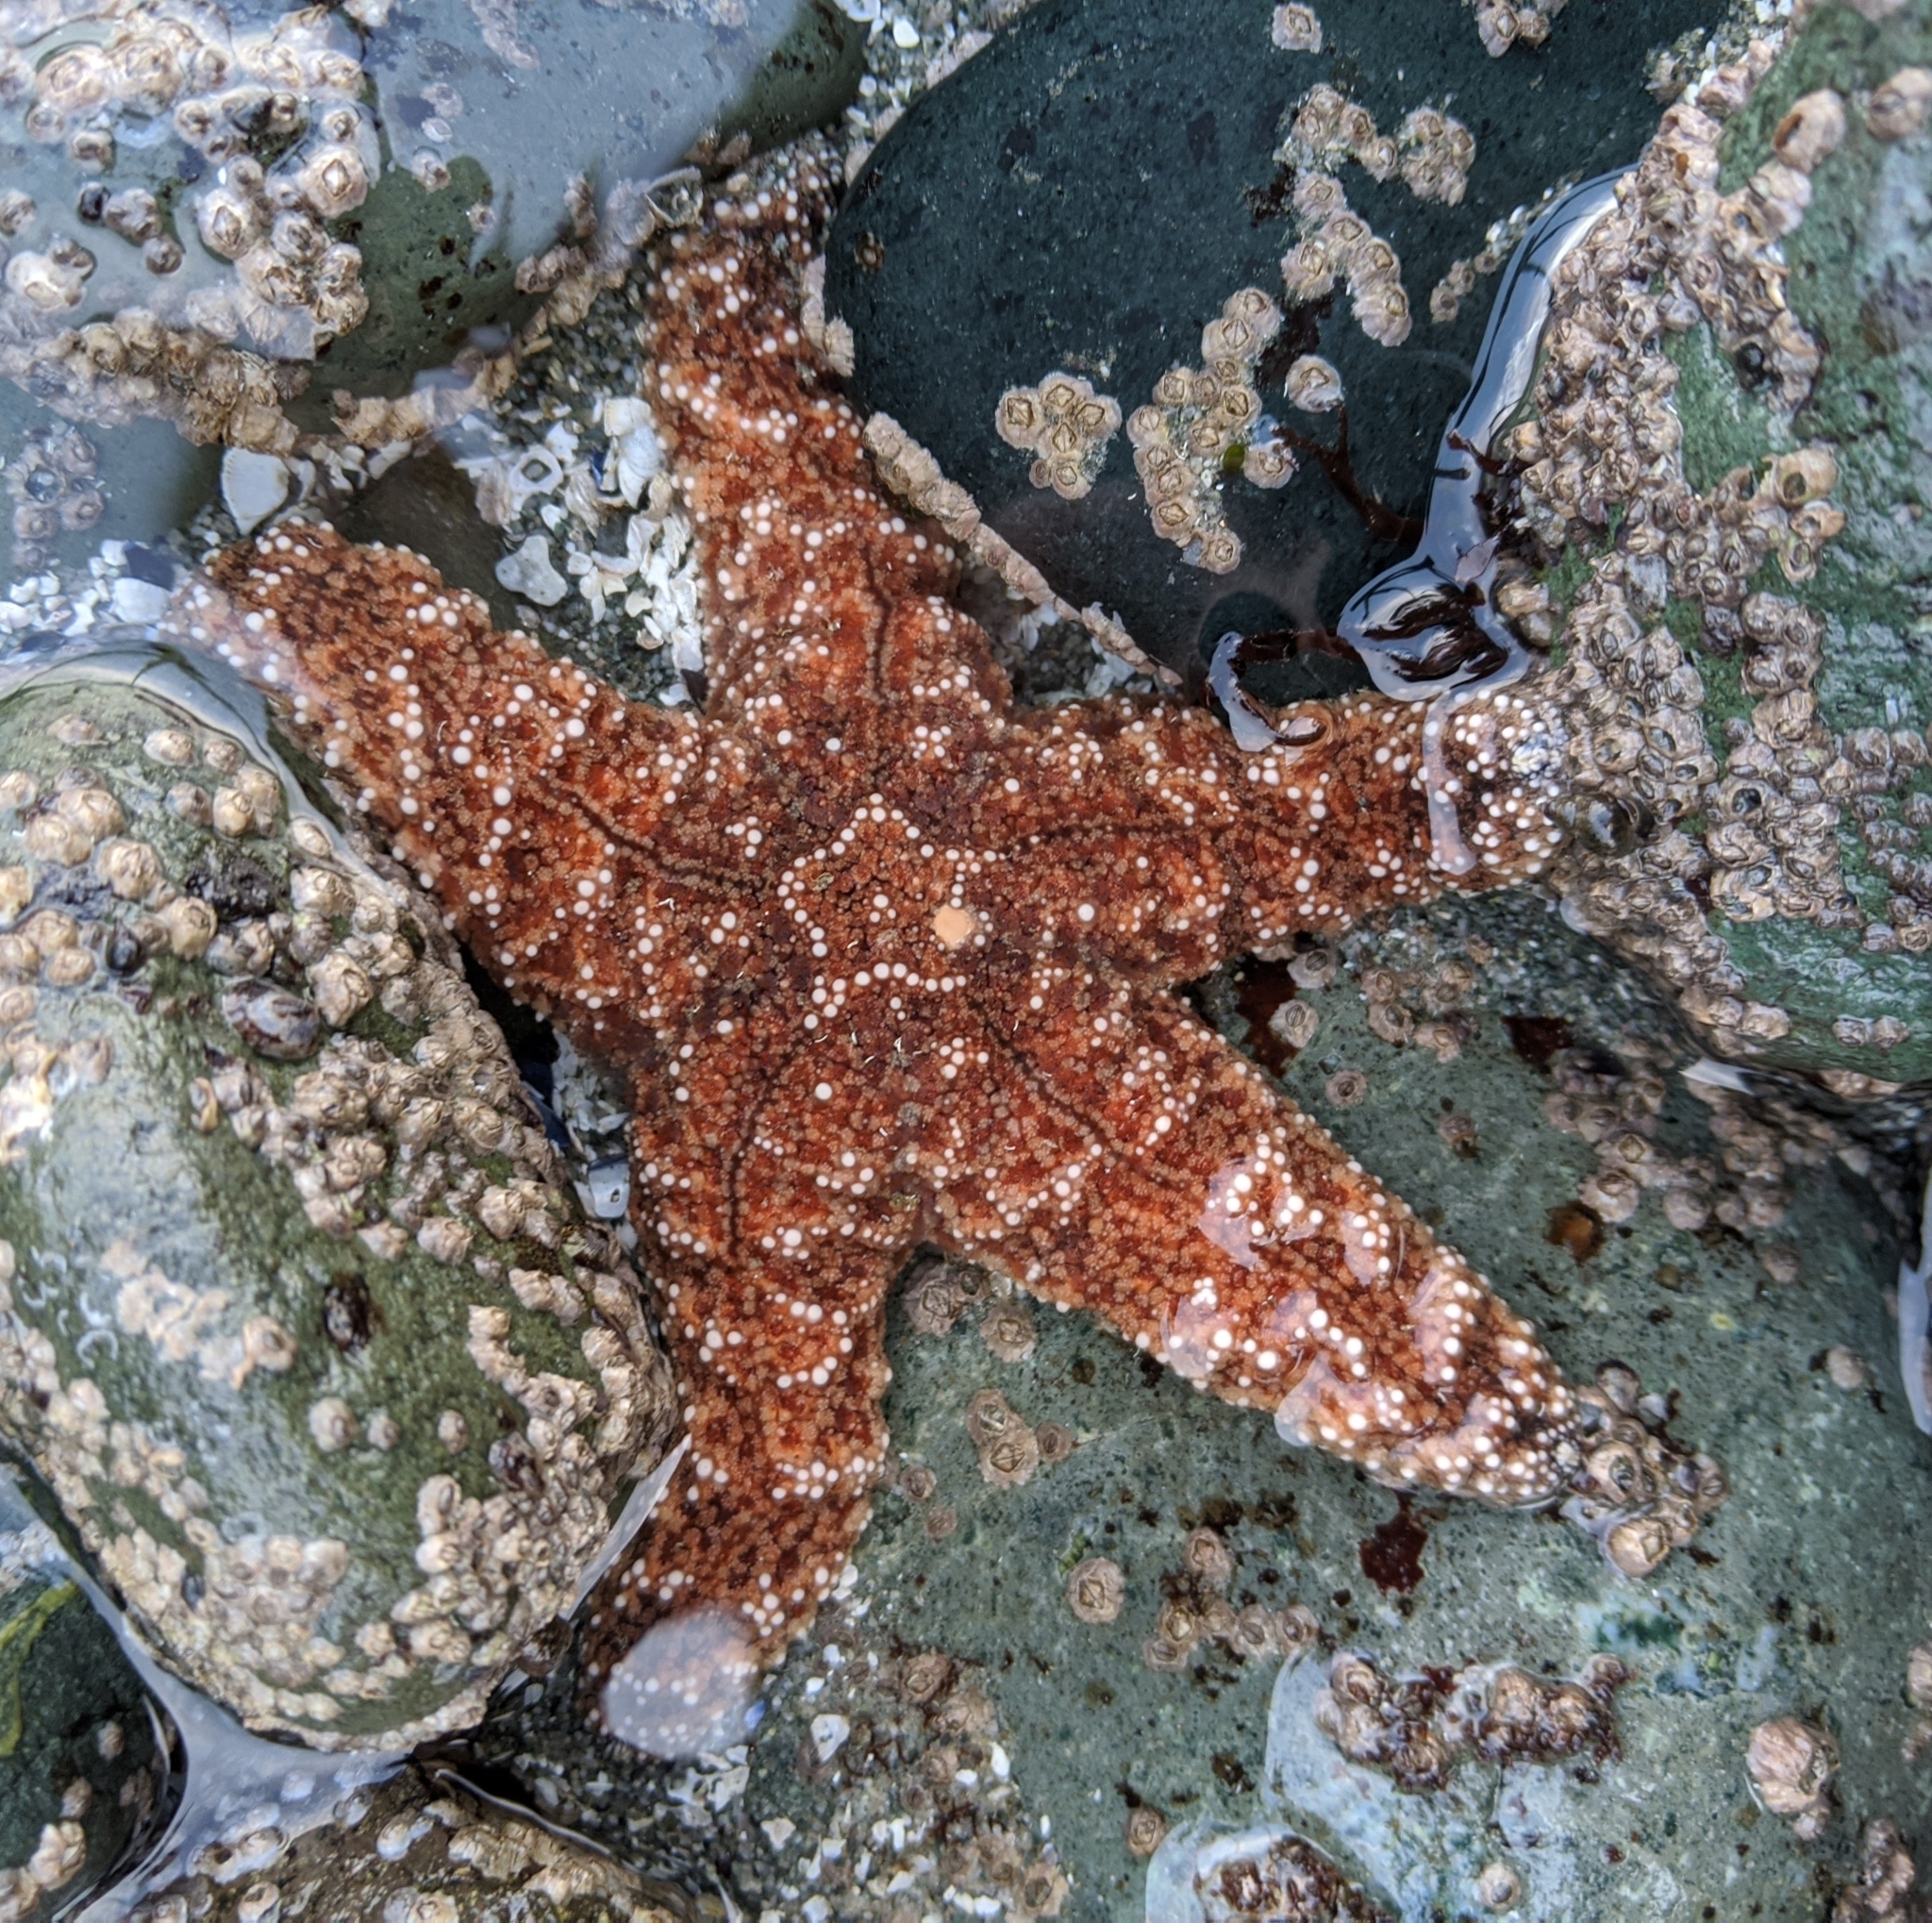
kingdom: Animalia
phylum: Echinodermata
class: Asteroidea
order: Forcipulatida
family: Asteriidae
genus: Pisaster
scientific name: Pisaster ochraceus
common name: Ochre stars
